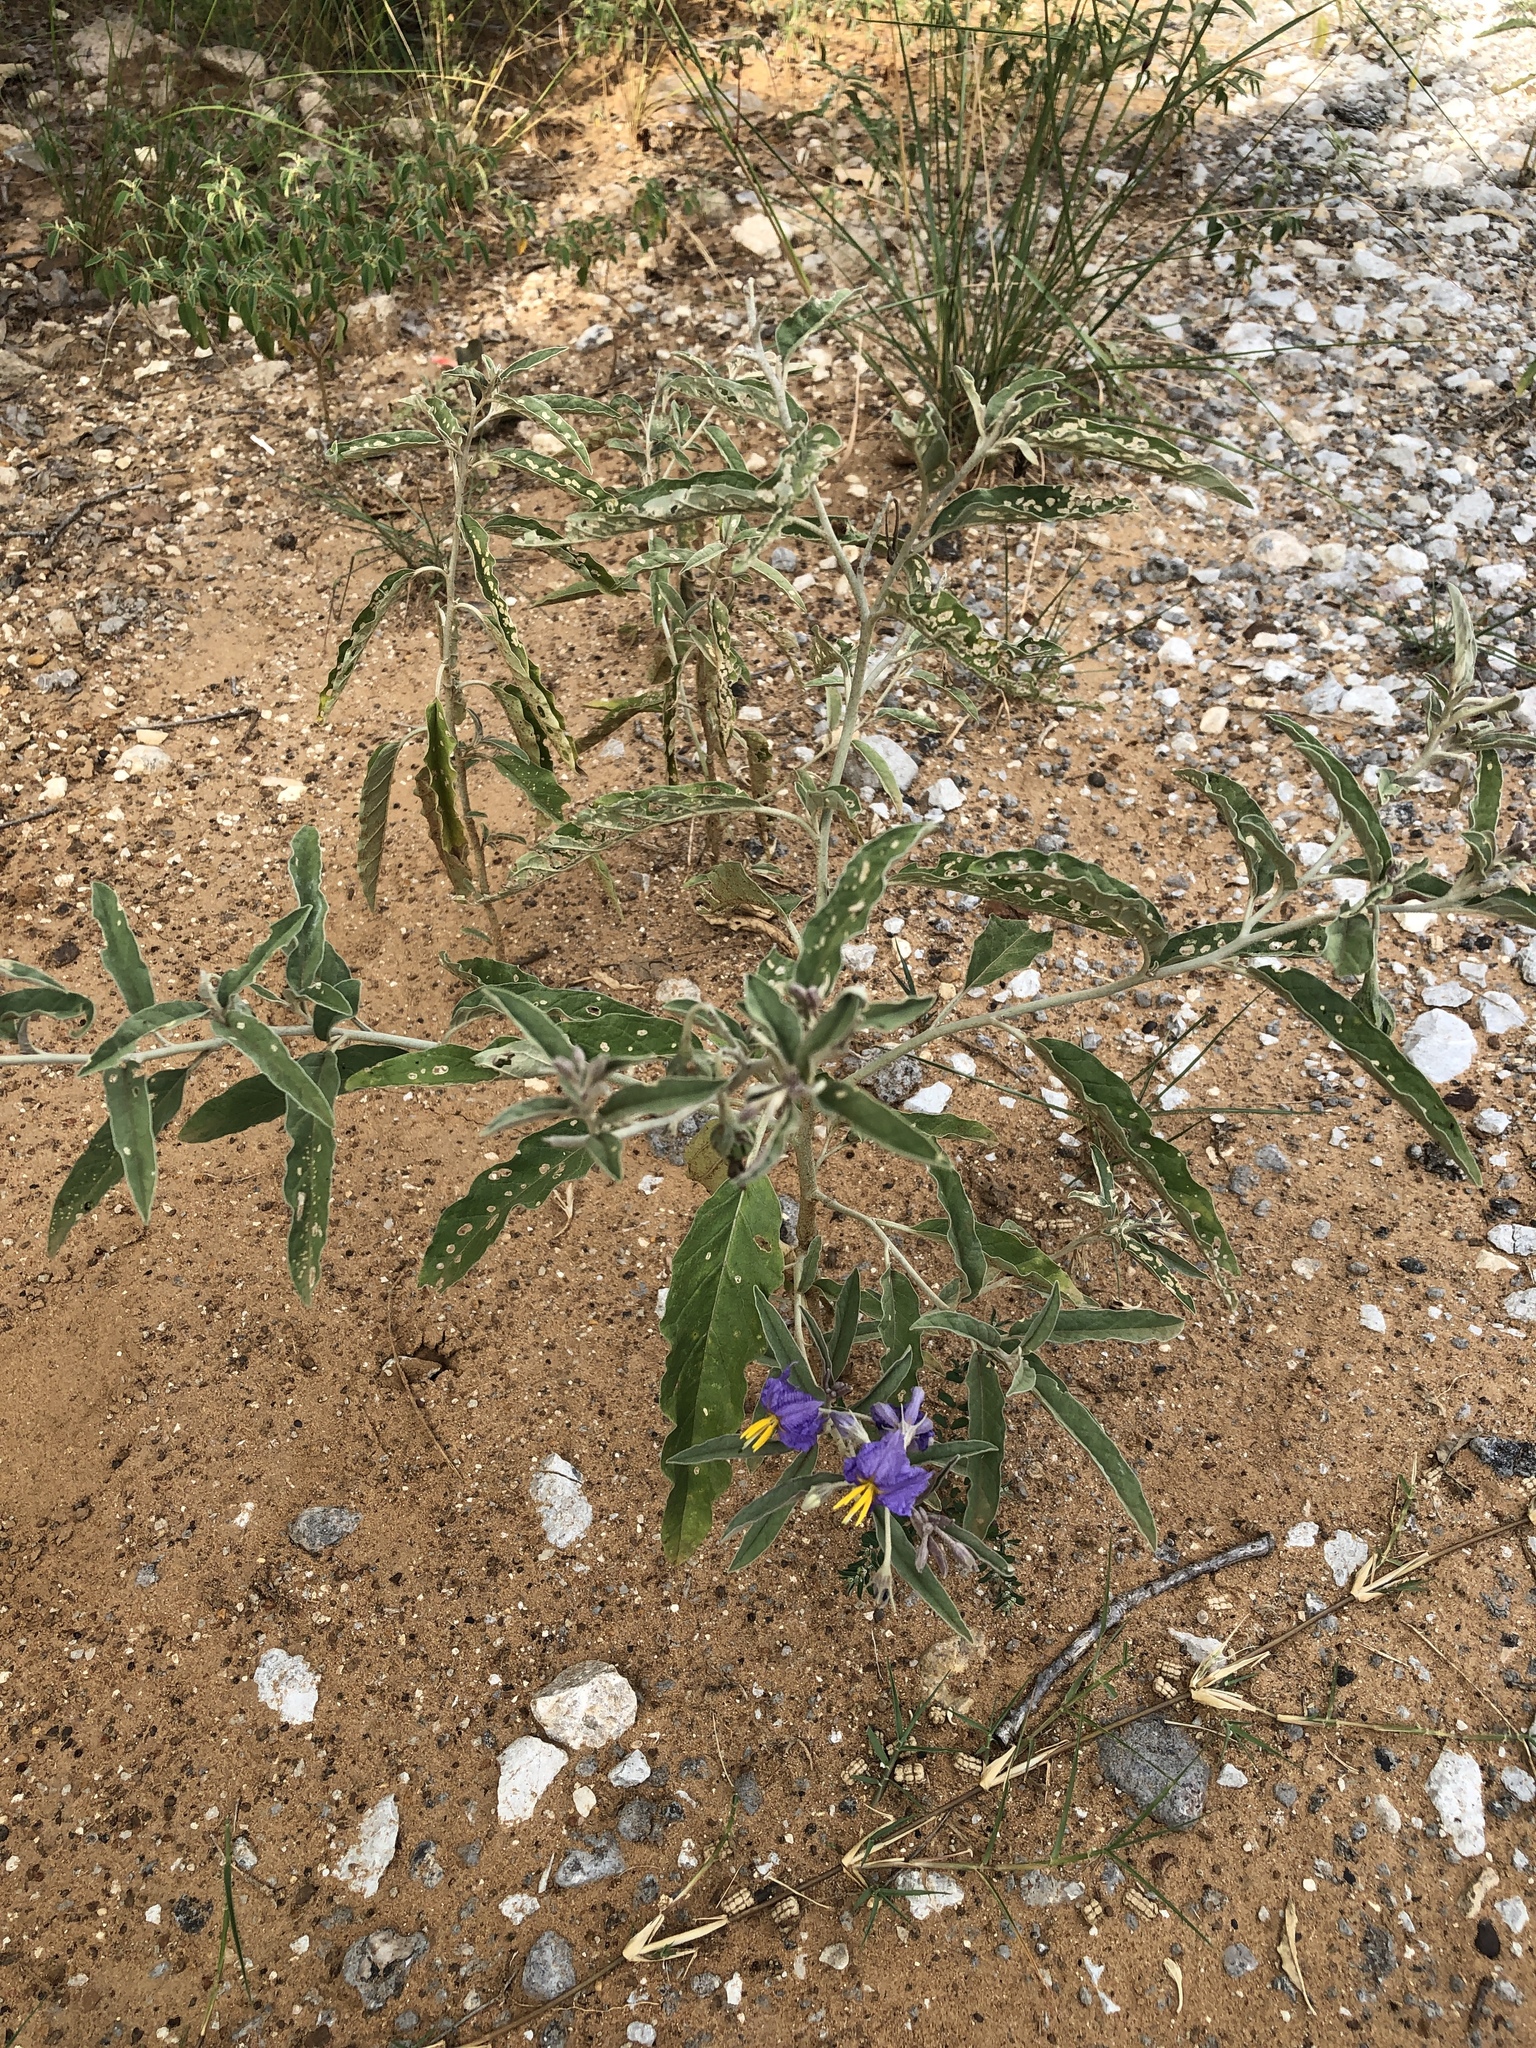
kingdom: Plantae
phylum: Tracheophyta
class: Magnoliopsida
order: Solanales
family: Solanaceae
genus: Solanum
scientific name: Solanum elaeagnifolium
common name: Silverleaf nightshade
